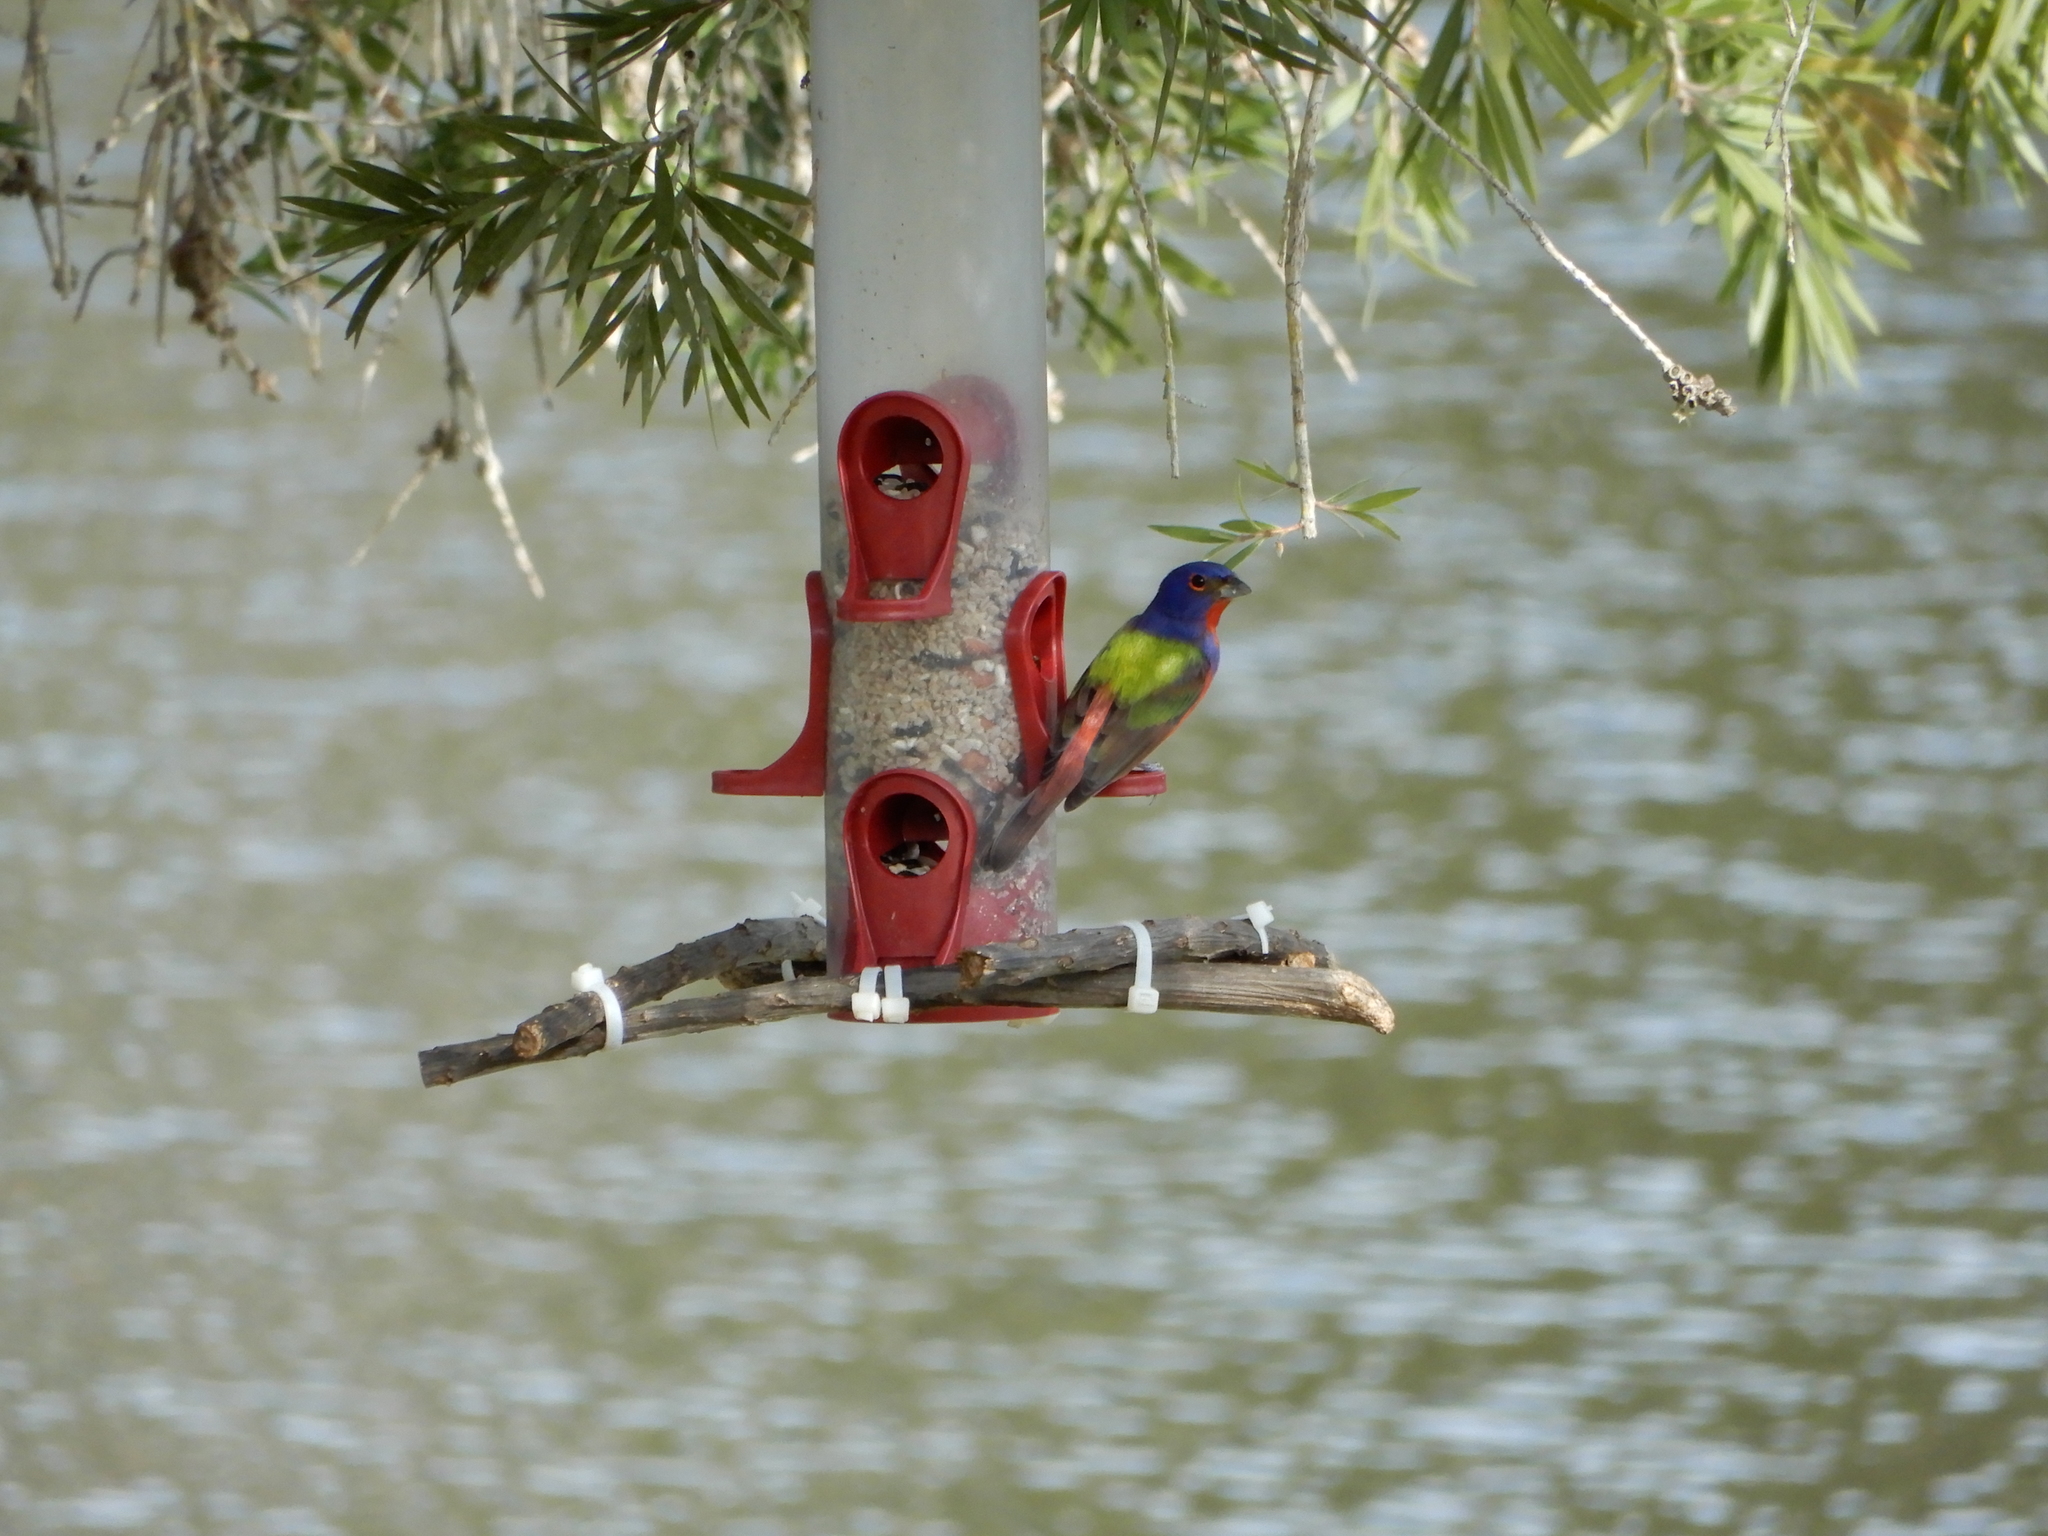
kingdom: Animalia
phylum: Chordata
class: Aves
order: Passeriformes
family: Cardinalidae
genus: Passerina
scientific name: Passerina ciris
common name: Painted bunting
